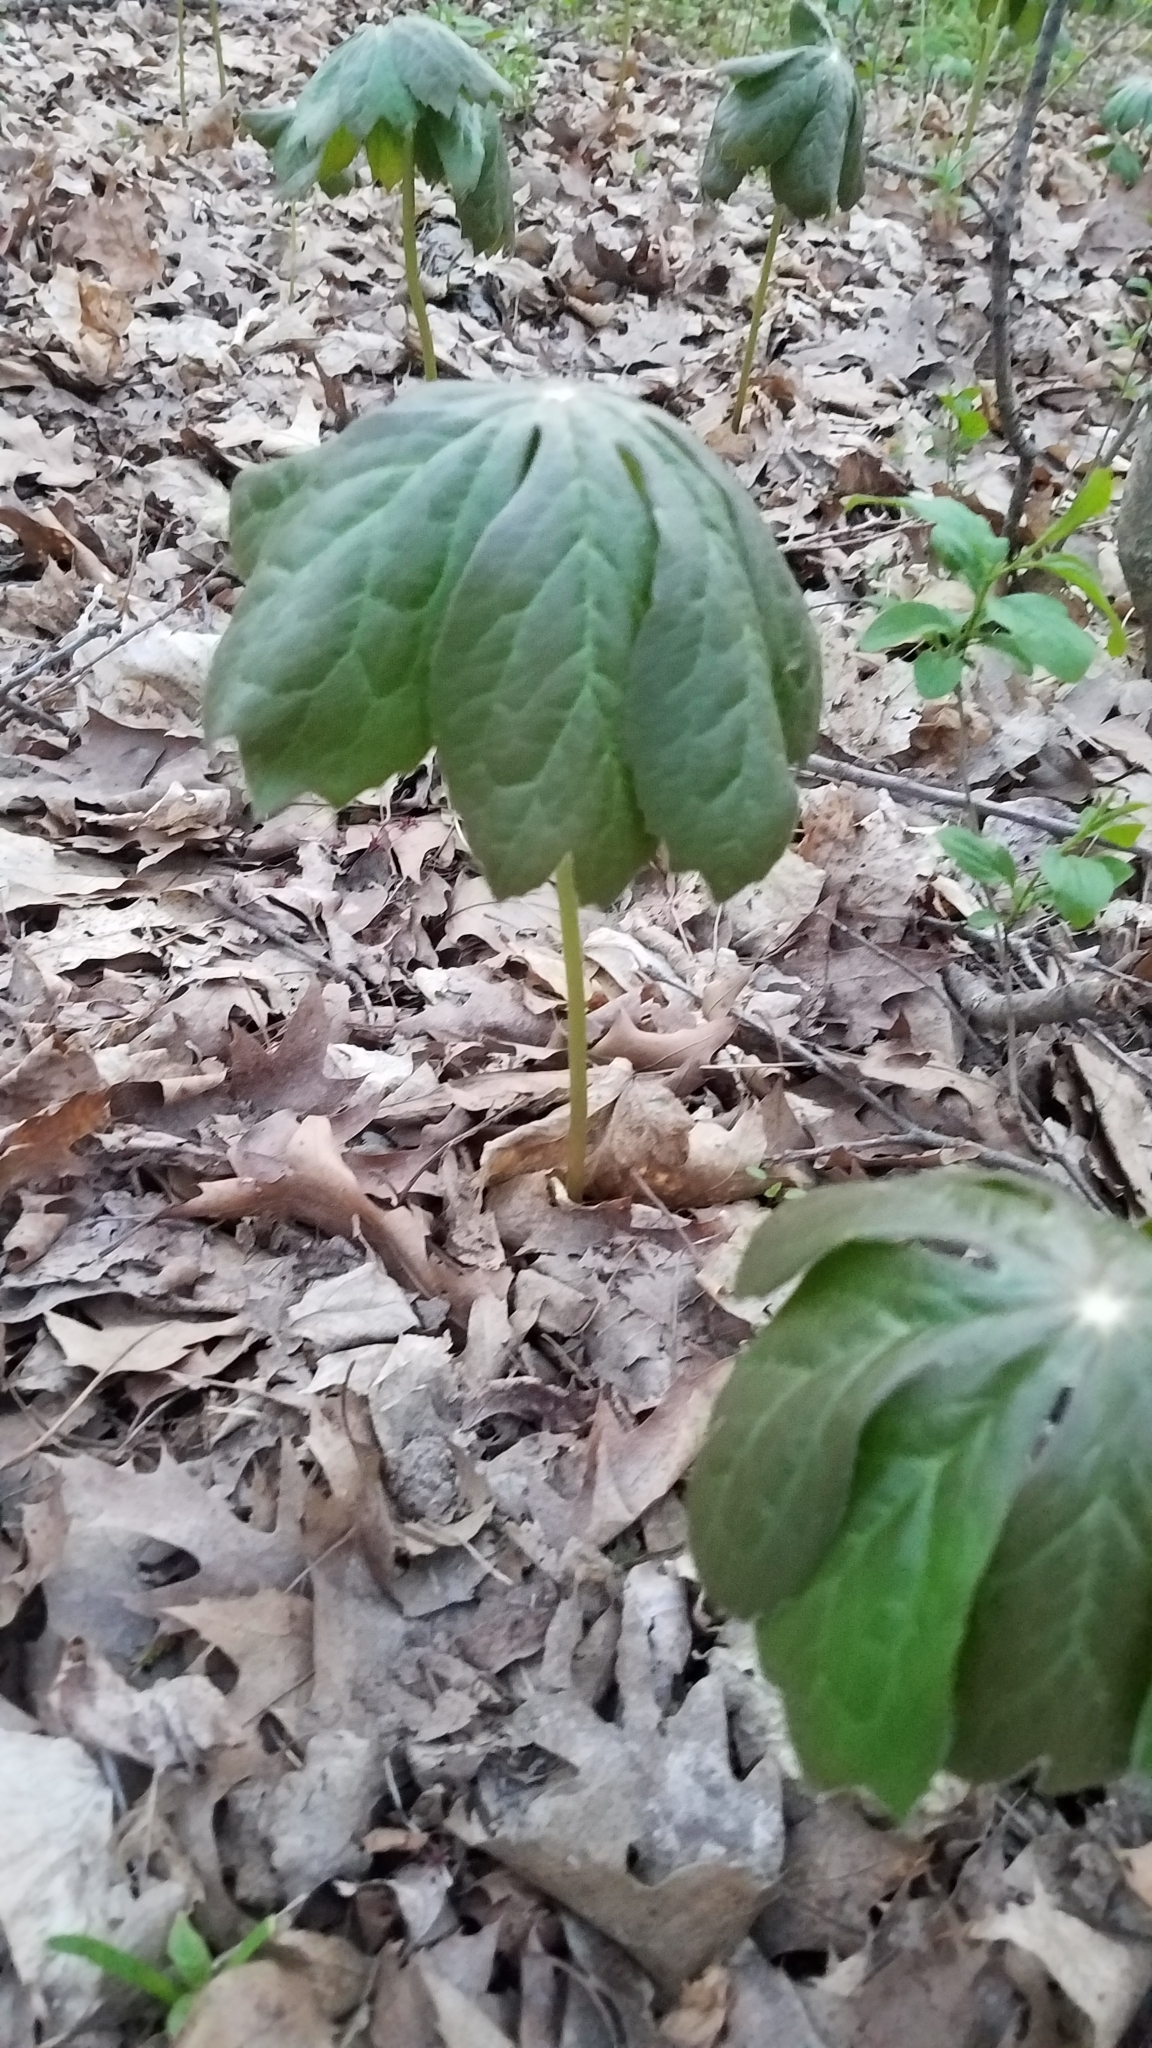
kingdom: Plantae
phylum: Tracheophyta
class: Magnoliopsida
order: Ranunculales
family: Berberidaceae
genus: Podophyllum
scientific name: Podophyllum peltatum
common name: Wild mandrake
